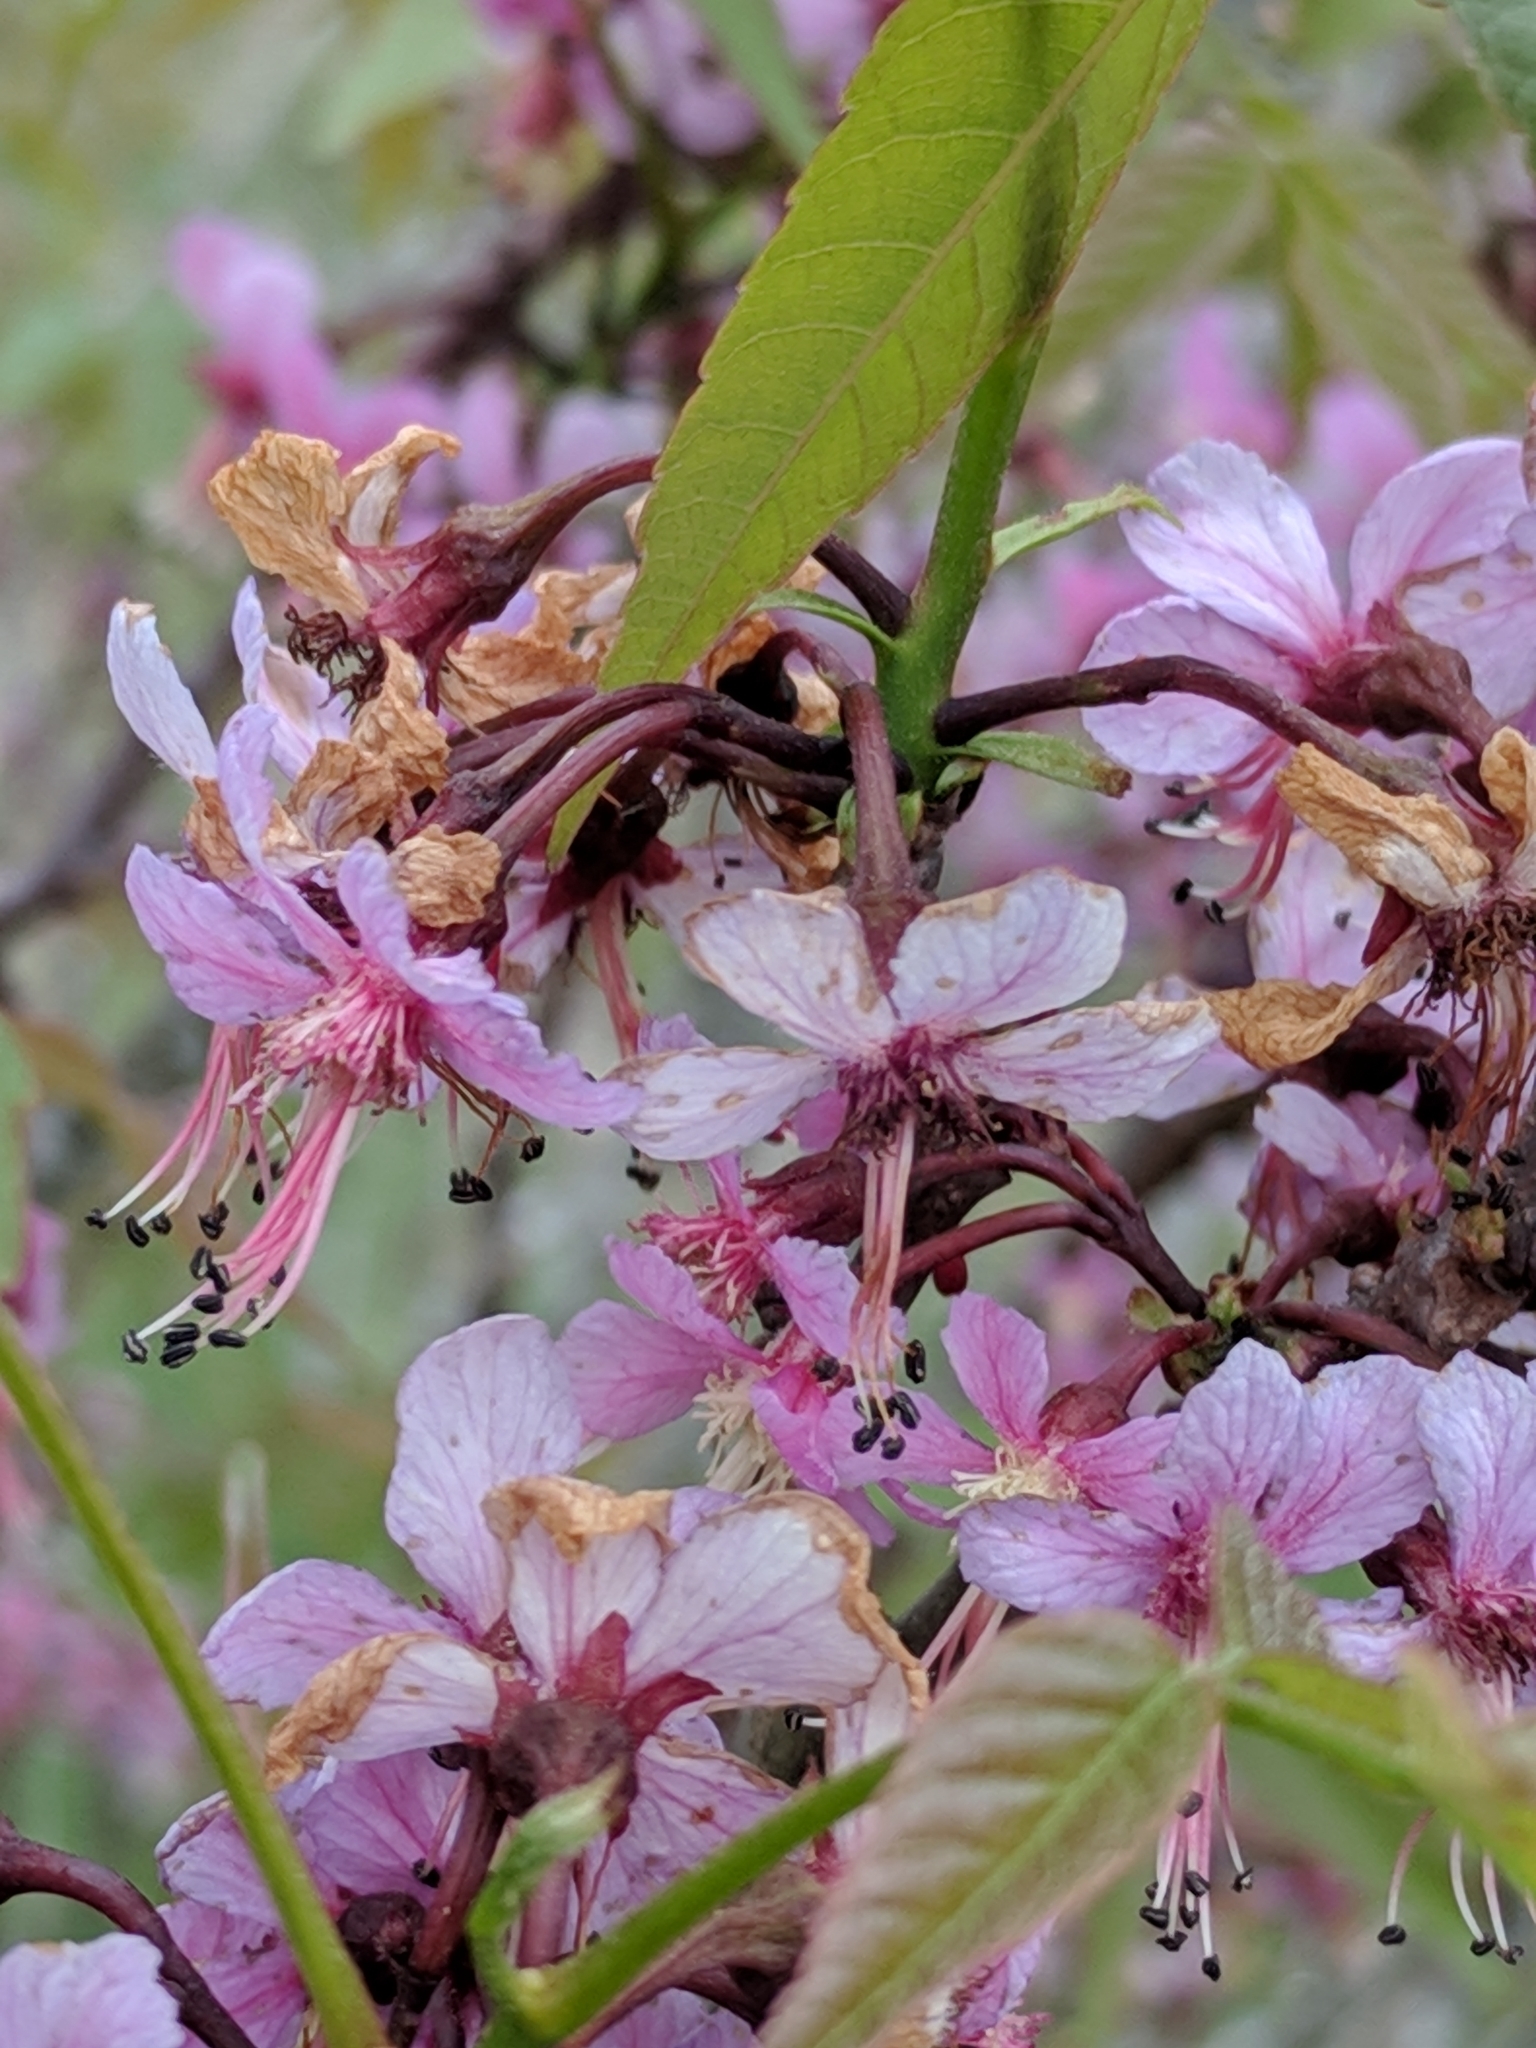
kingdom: Plantae
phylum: Tracheophyta
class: Magnoliopsida
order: Sapindales
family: Sapindaceae
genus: Ungnadia
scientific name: Ungnadia speciosa
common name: Texas-buckeye
